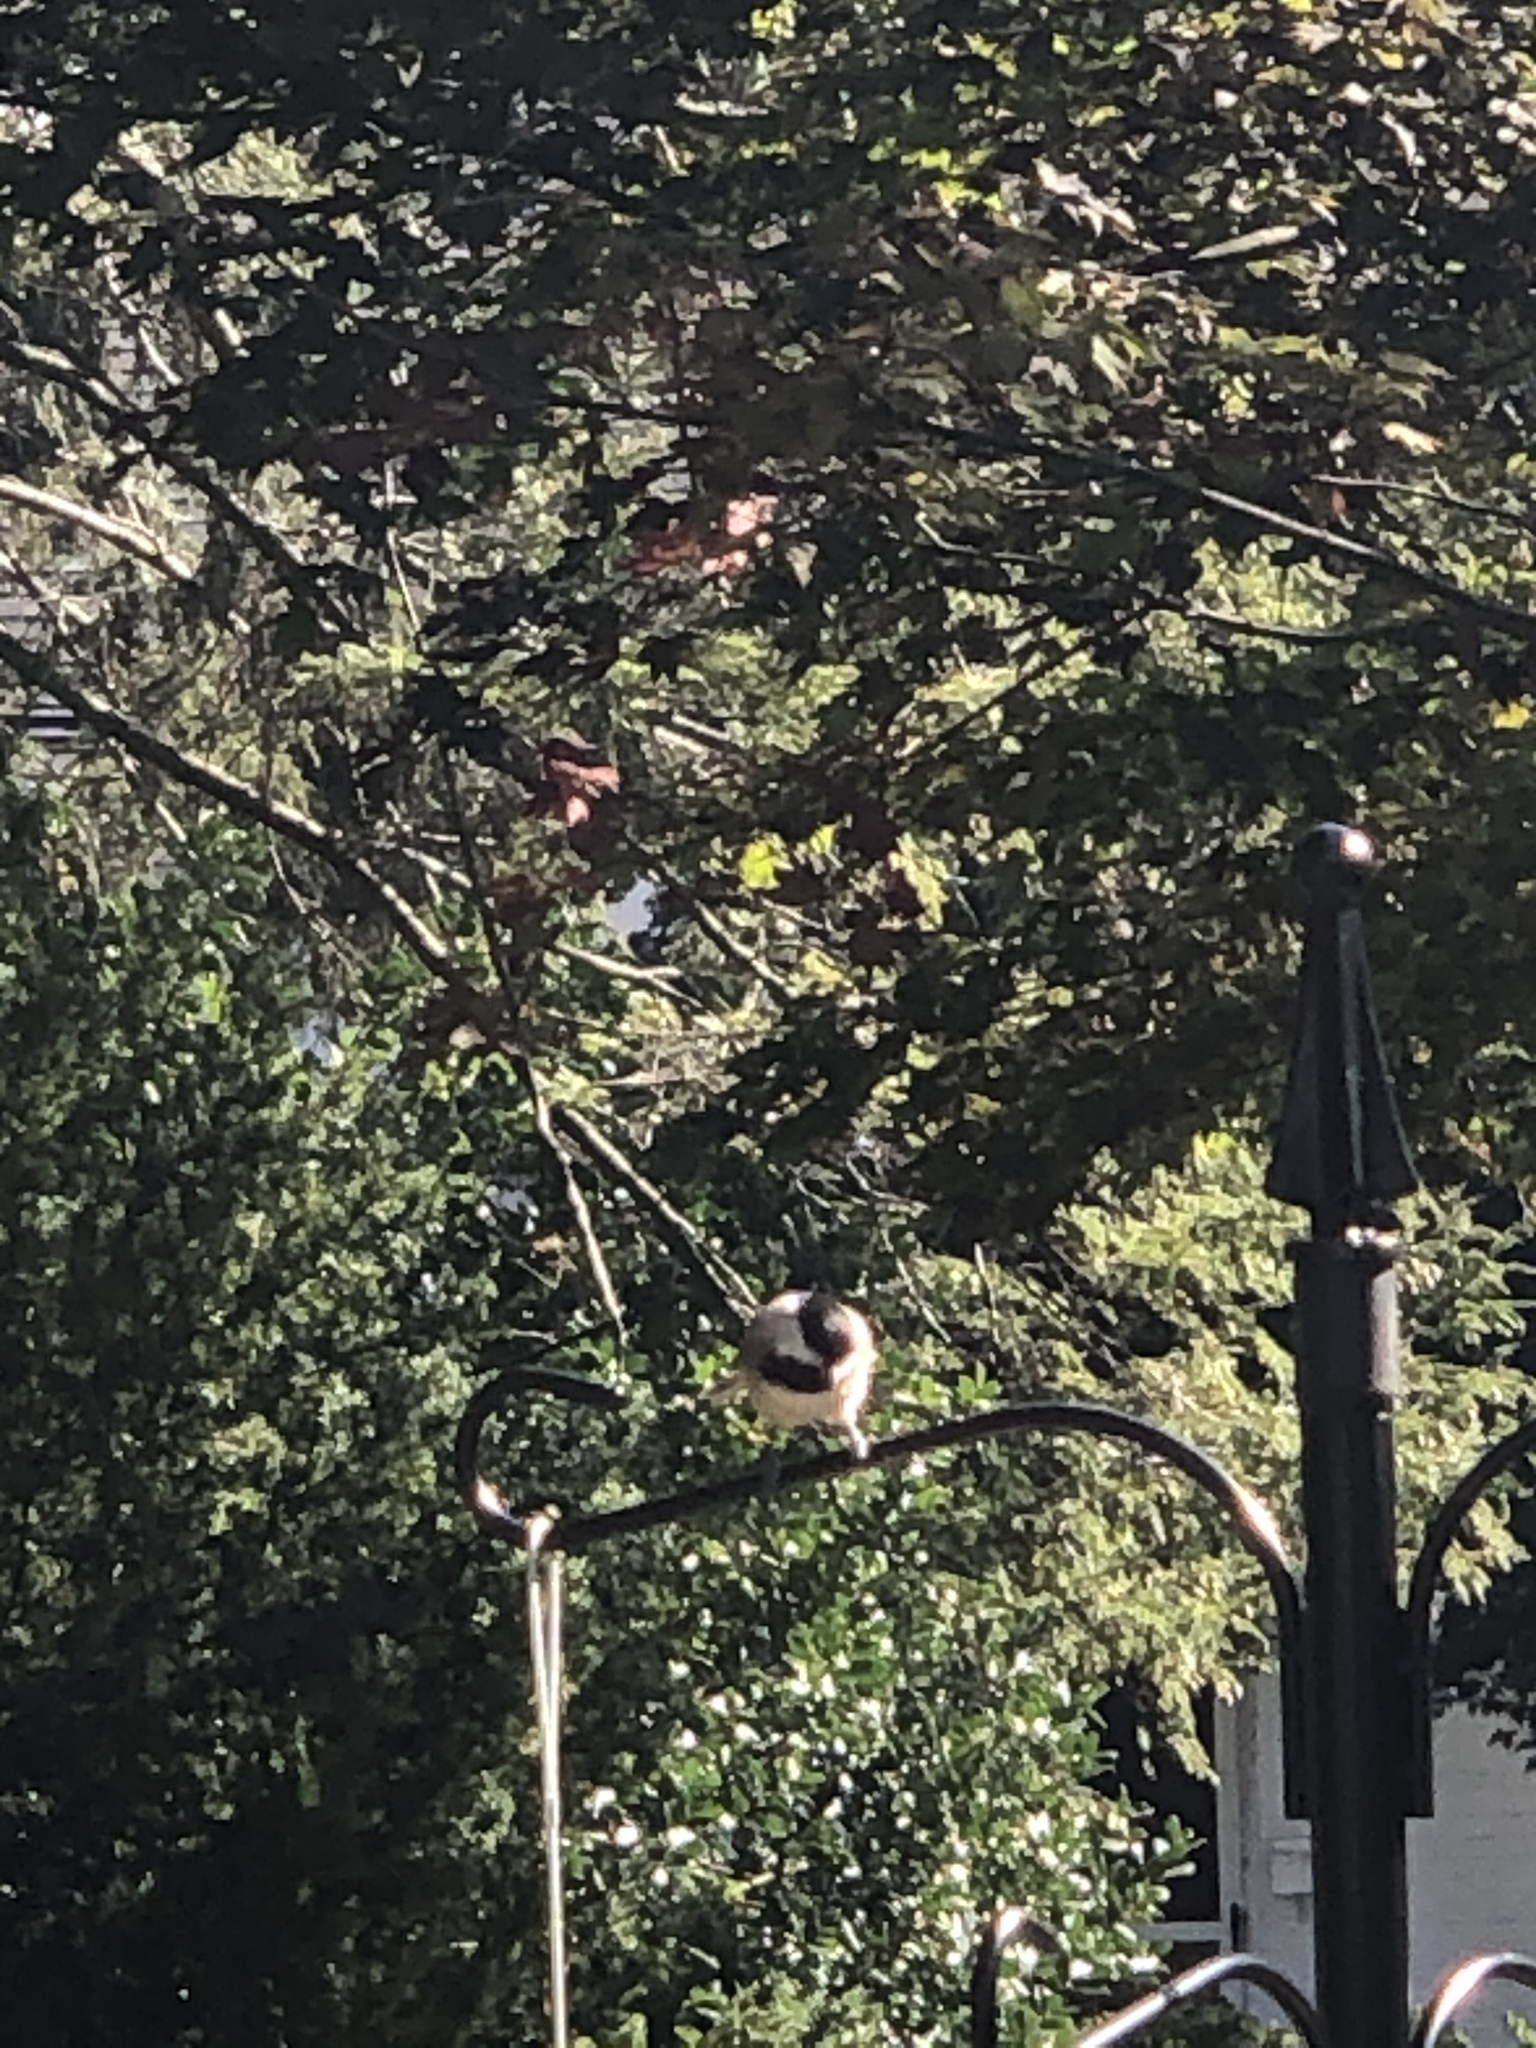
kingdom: Animalia
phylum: Chordata
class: Aves
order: Passeriformes
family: Paridae
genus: Poecile
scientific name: Poecile carolinensis
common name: Carolina chickadee
